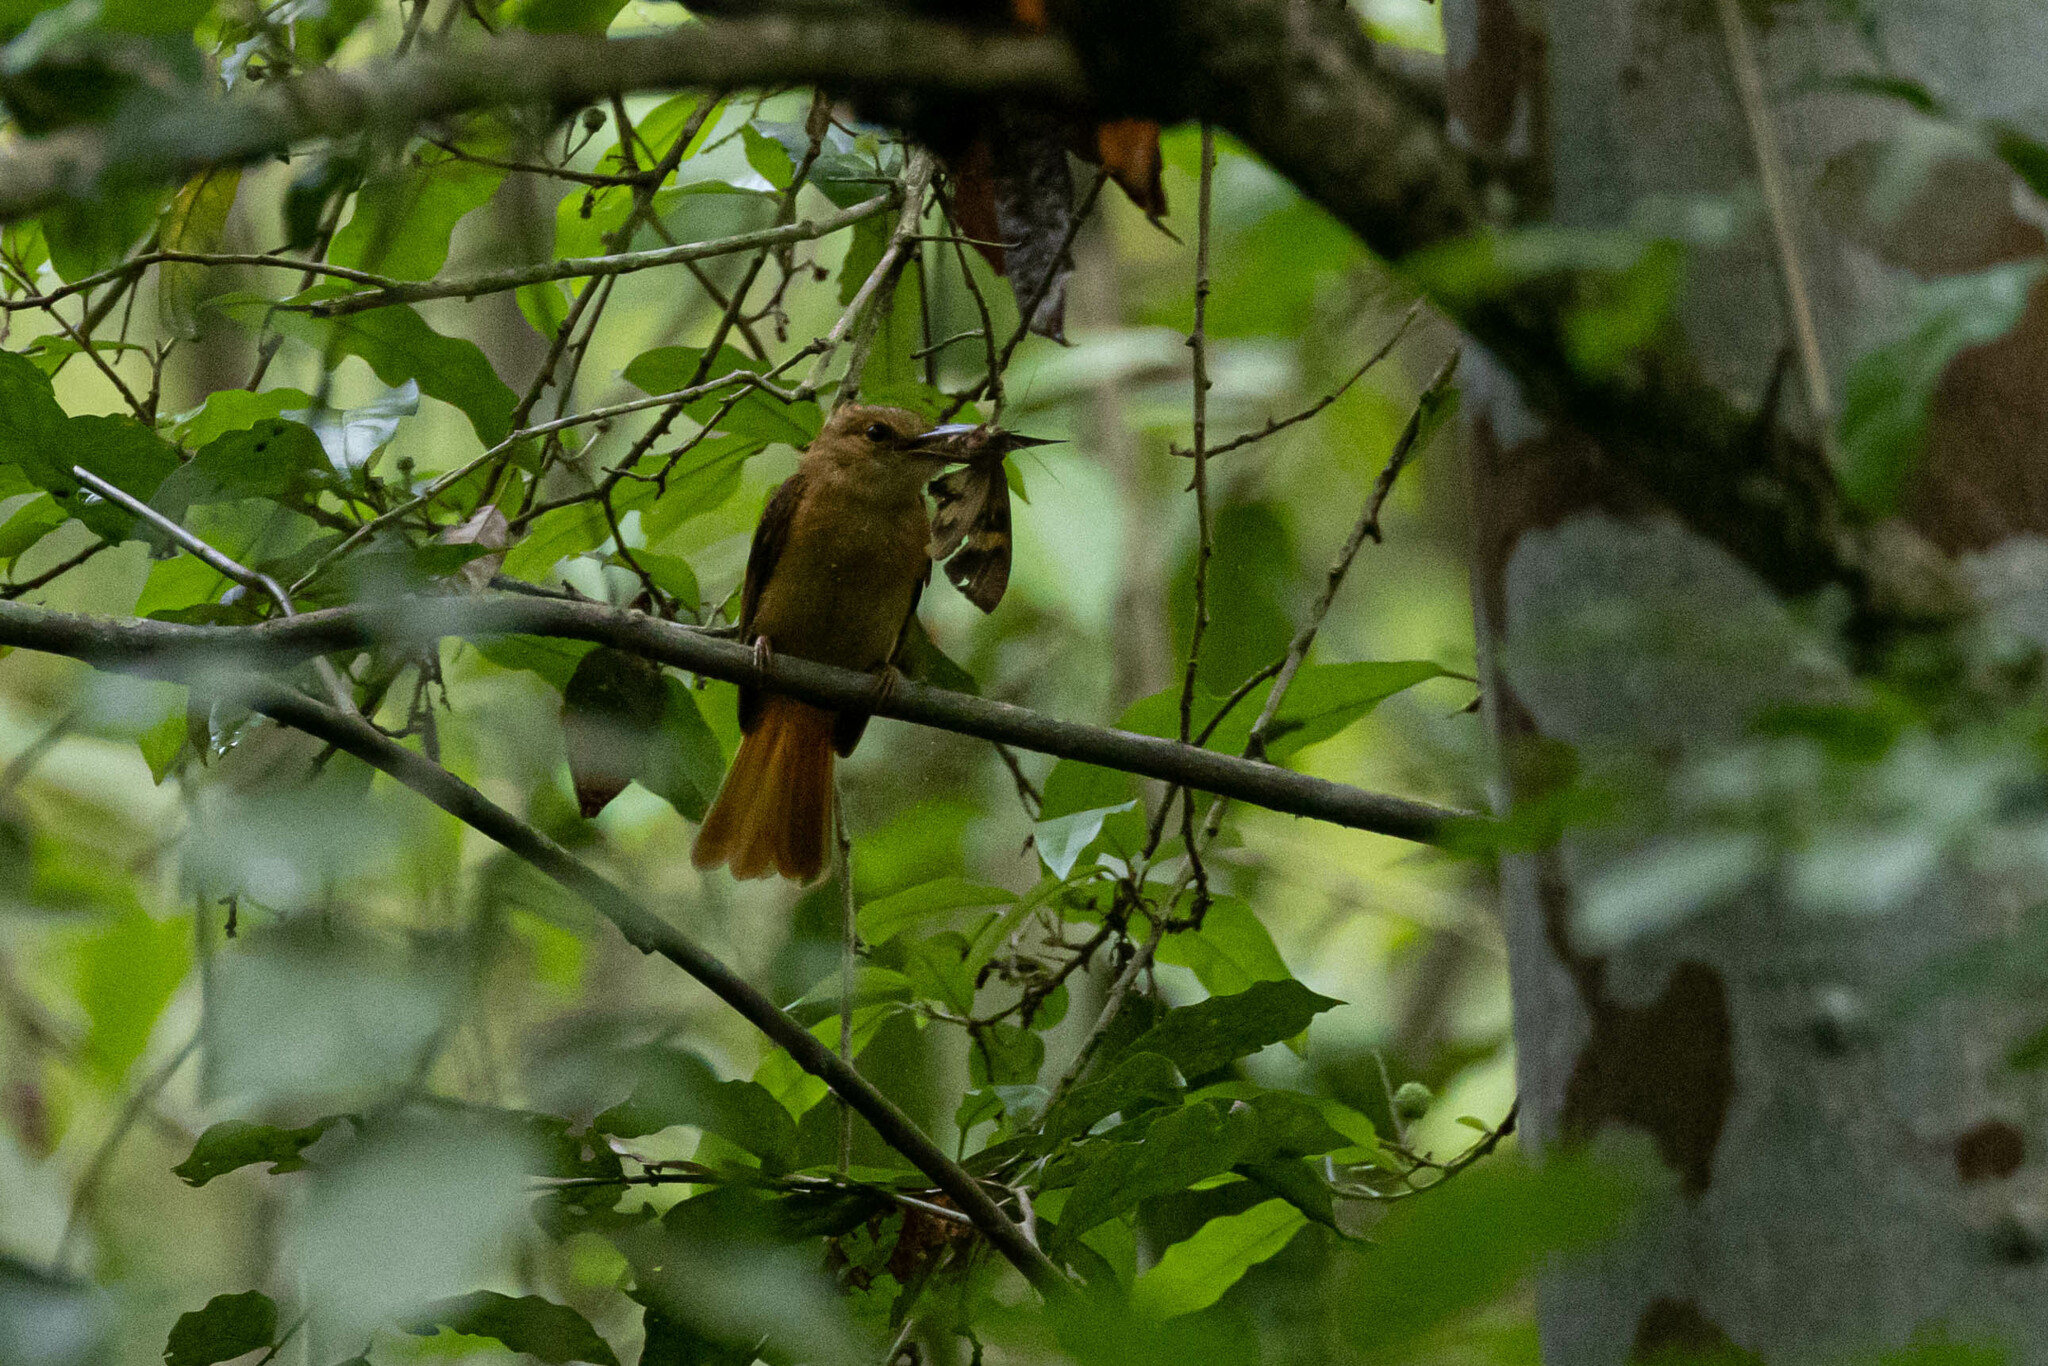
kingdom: Animalia
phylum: Chordata
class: Aves
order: Passeriformes
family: Tyrannidae
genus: Onychorhynchus
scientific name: Onychorhynchus coronatus
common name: Royal flycatcher
